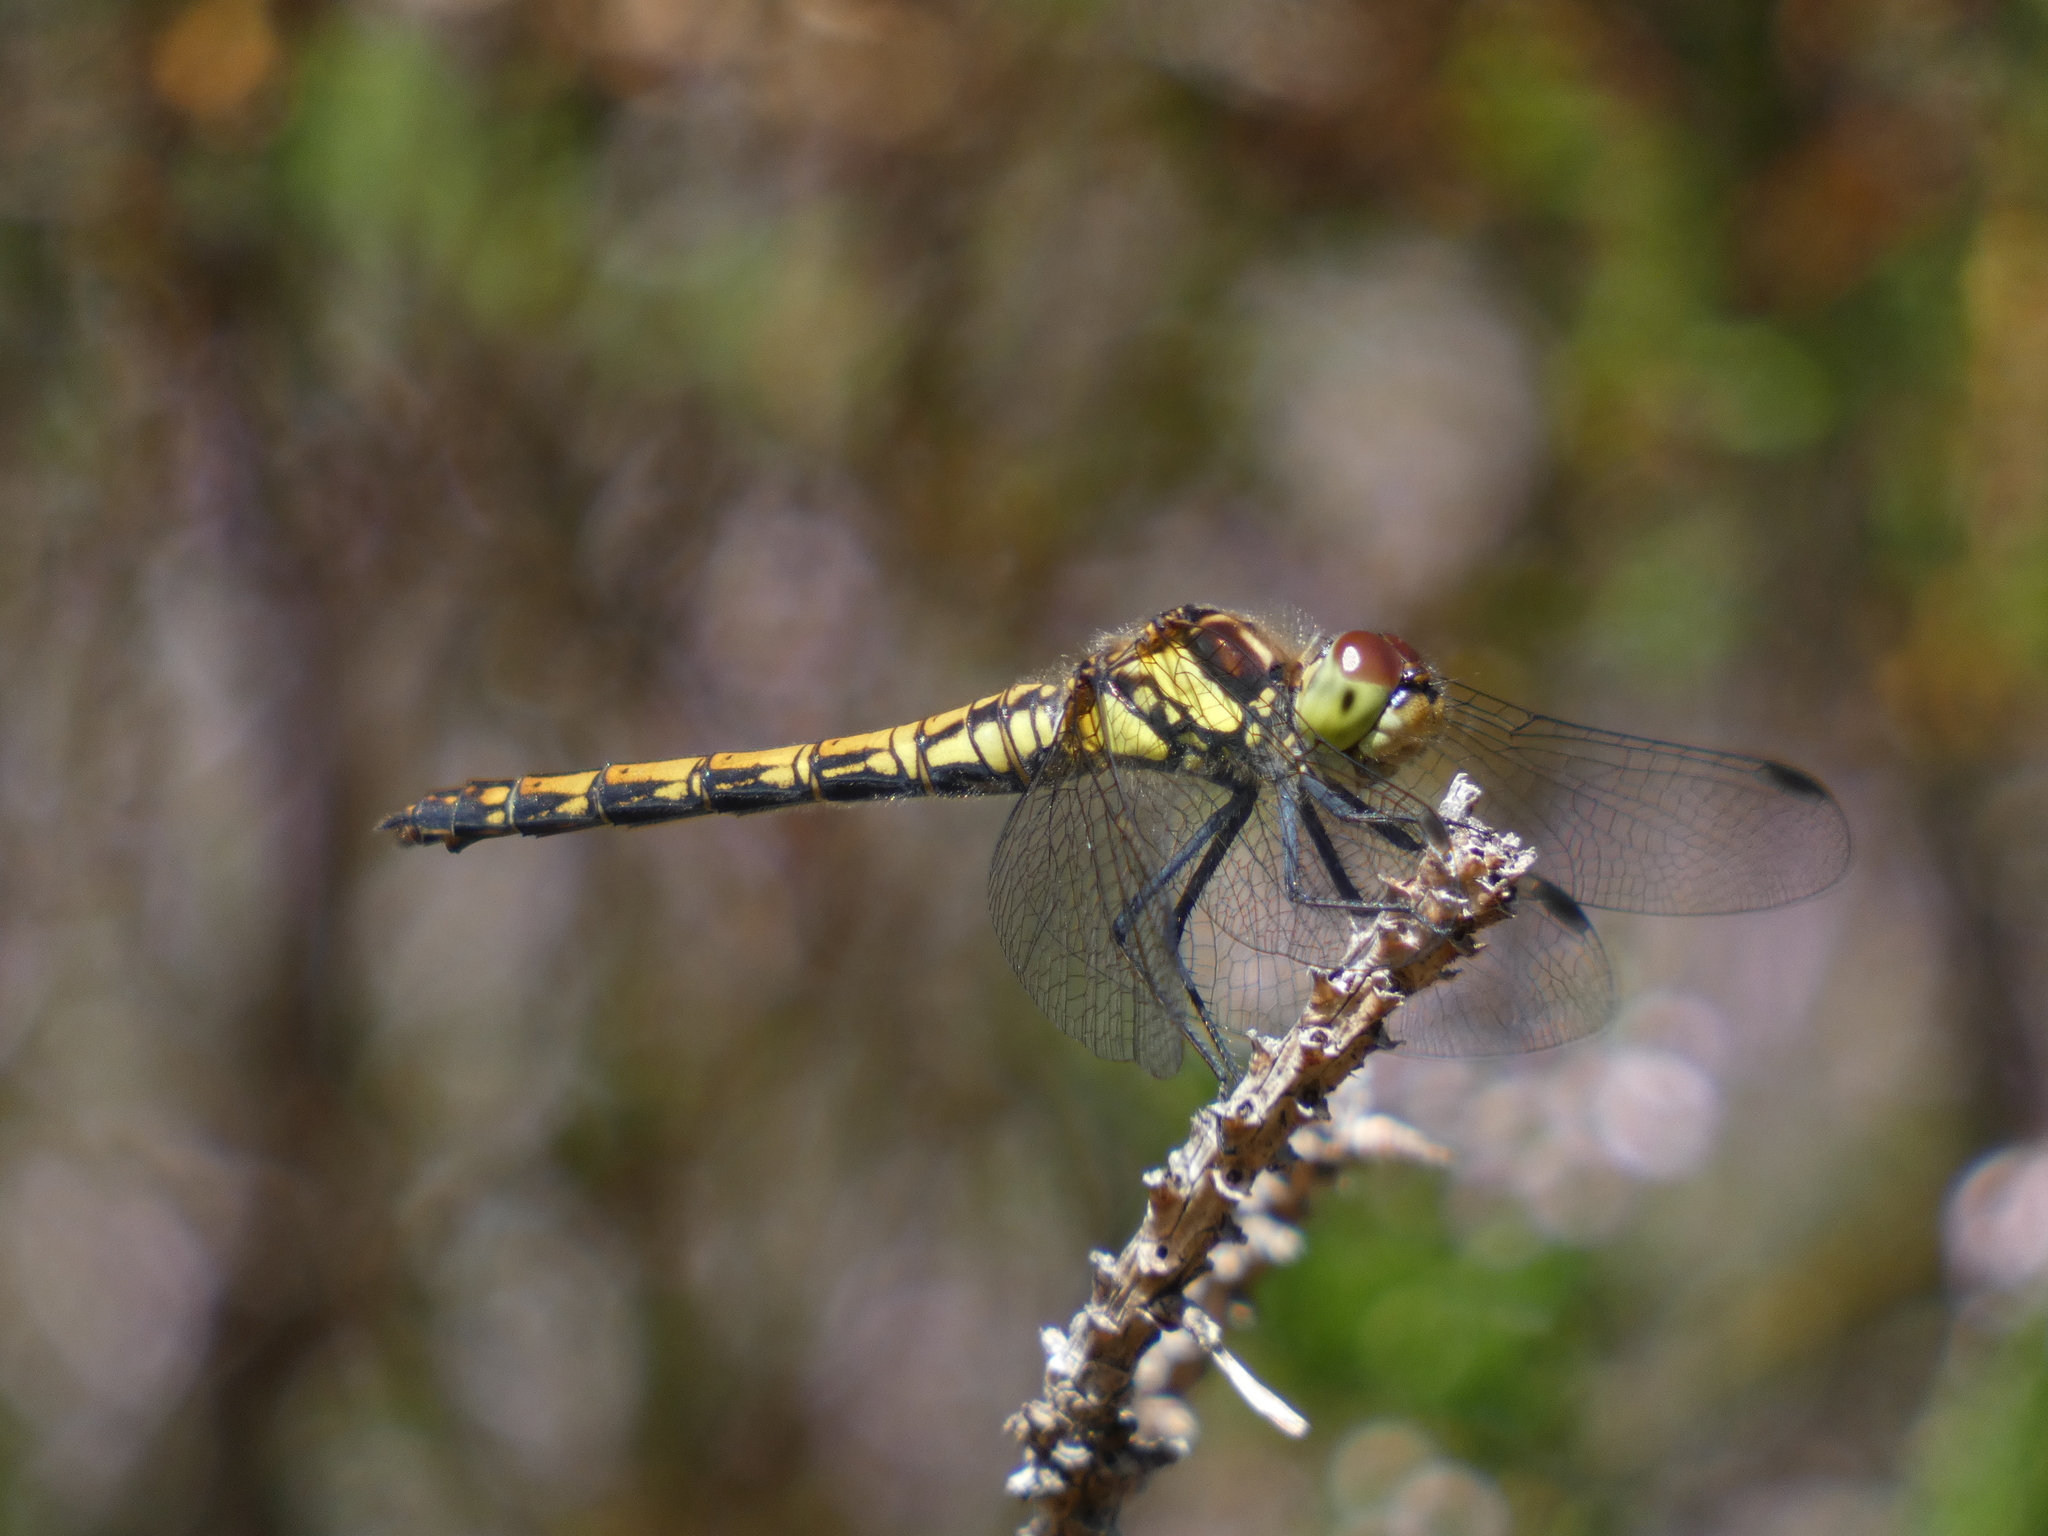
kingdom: Animalia
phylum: Arthropoda
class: Insecta
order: Odonata
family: Libellulidae
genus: Sympetrum
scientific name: Sympetrum danae
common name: Black darter
